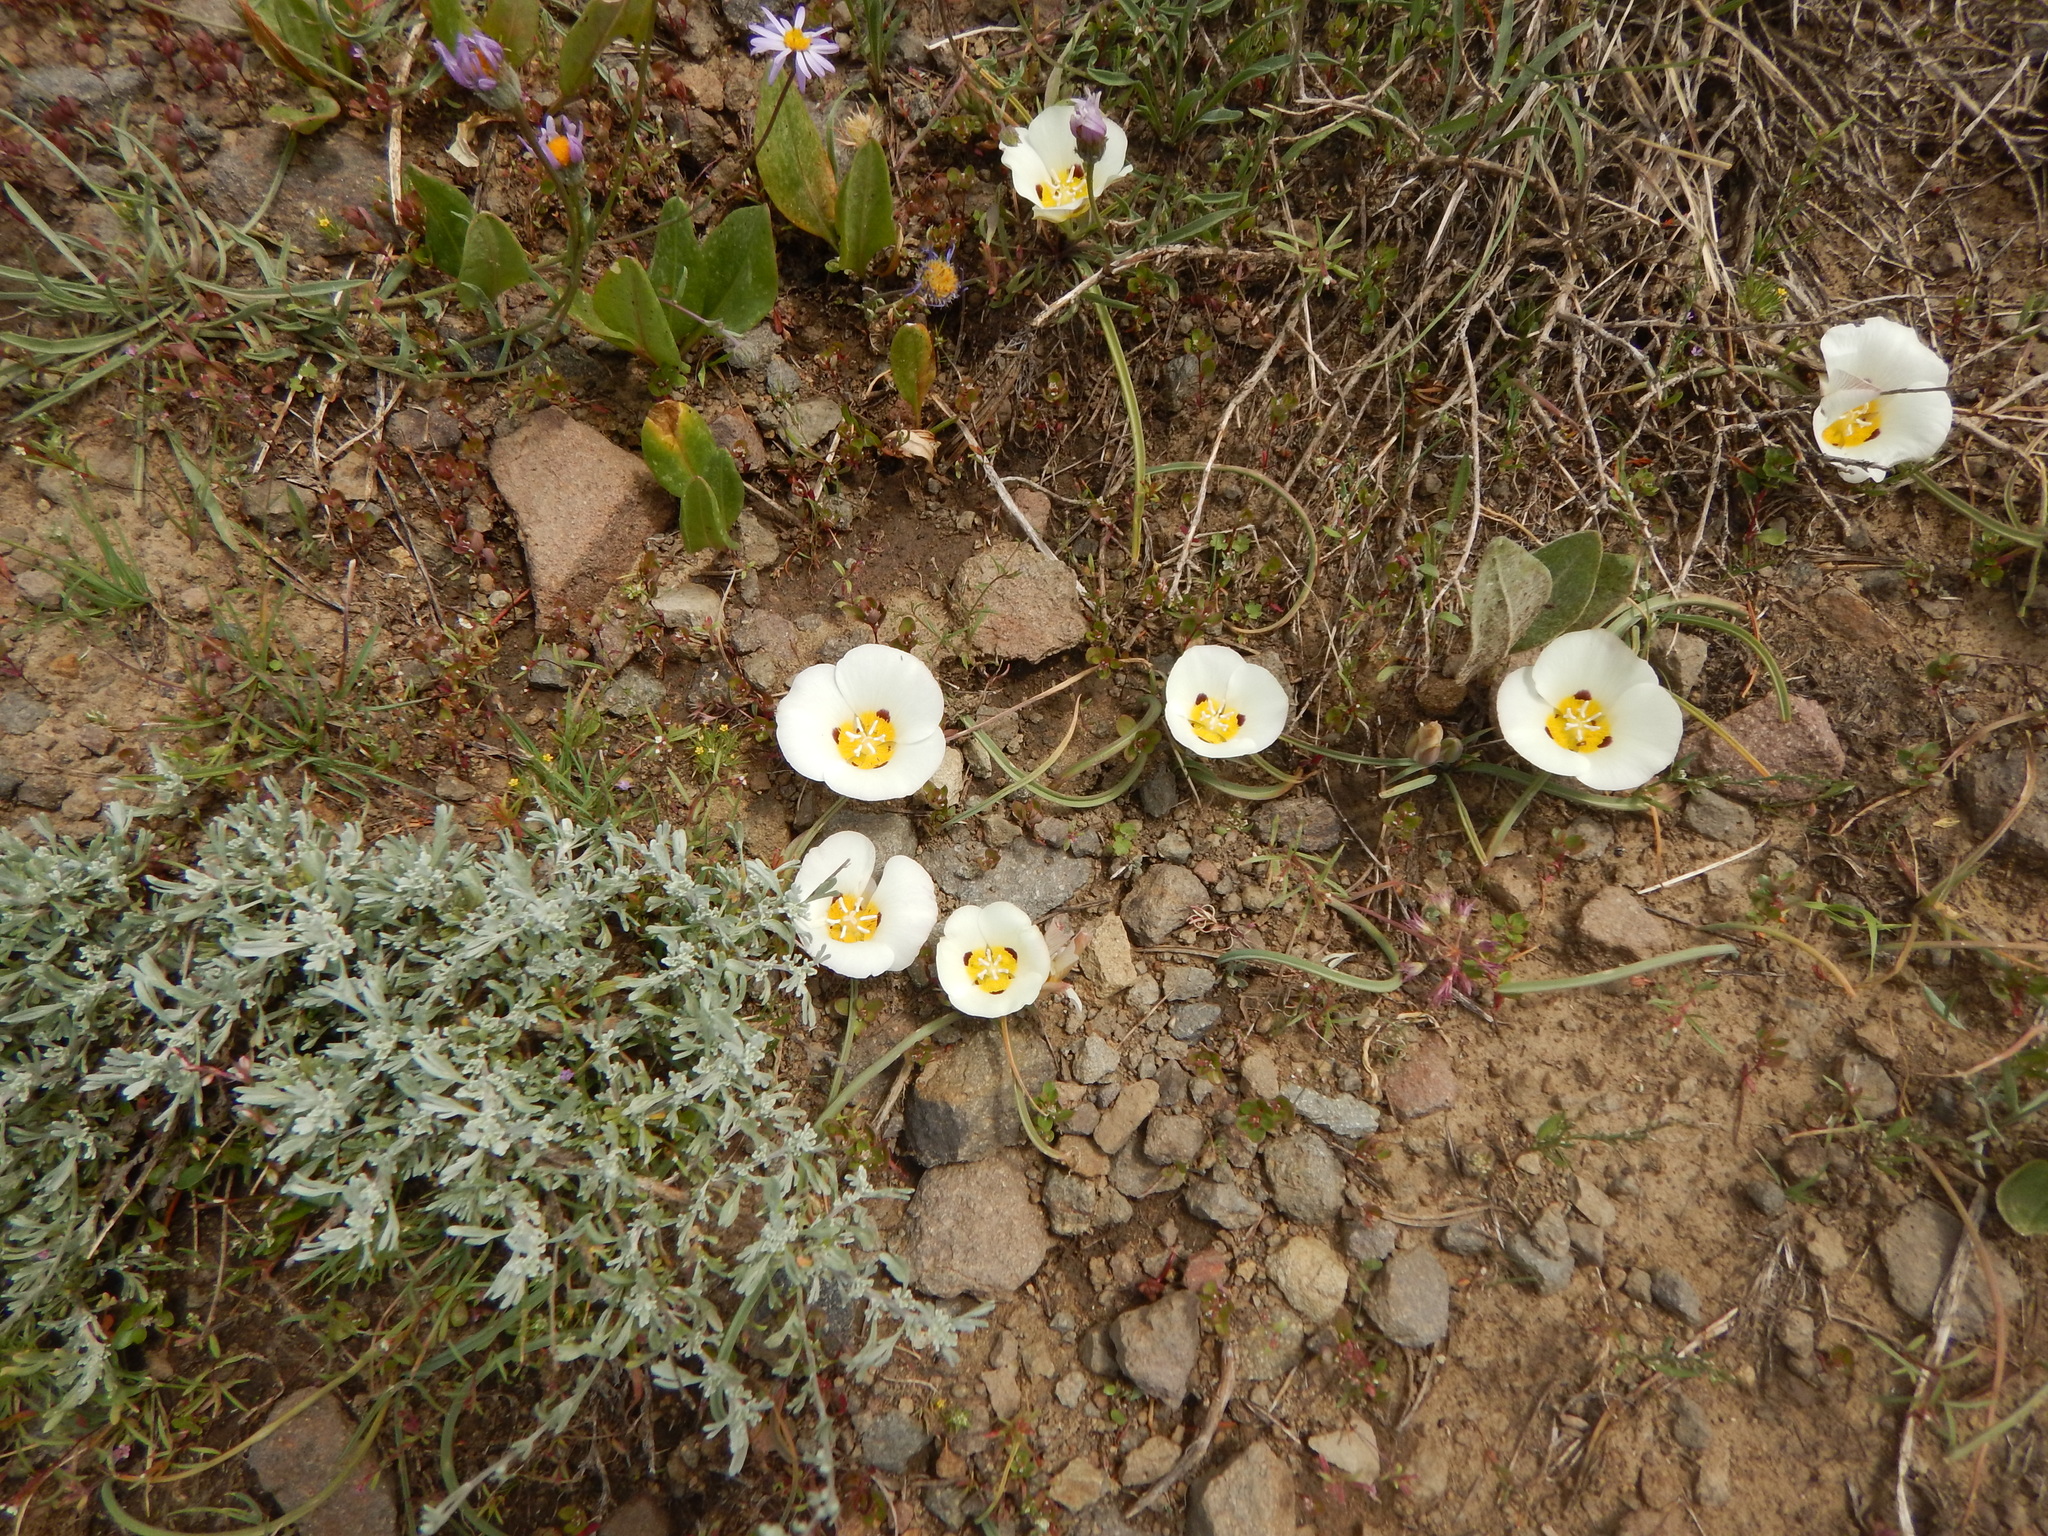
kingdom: Plantae
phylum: Tracheophyta
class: Liliopsida
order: Liliales
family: Liliaceae
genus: Calochortus
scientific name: Calochortus leichtlinii
